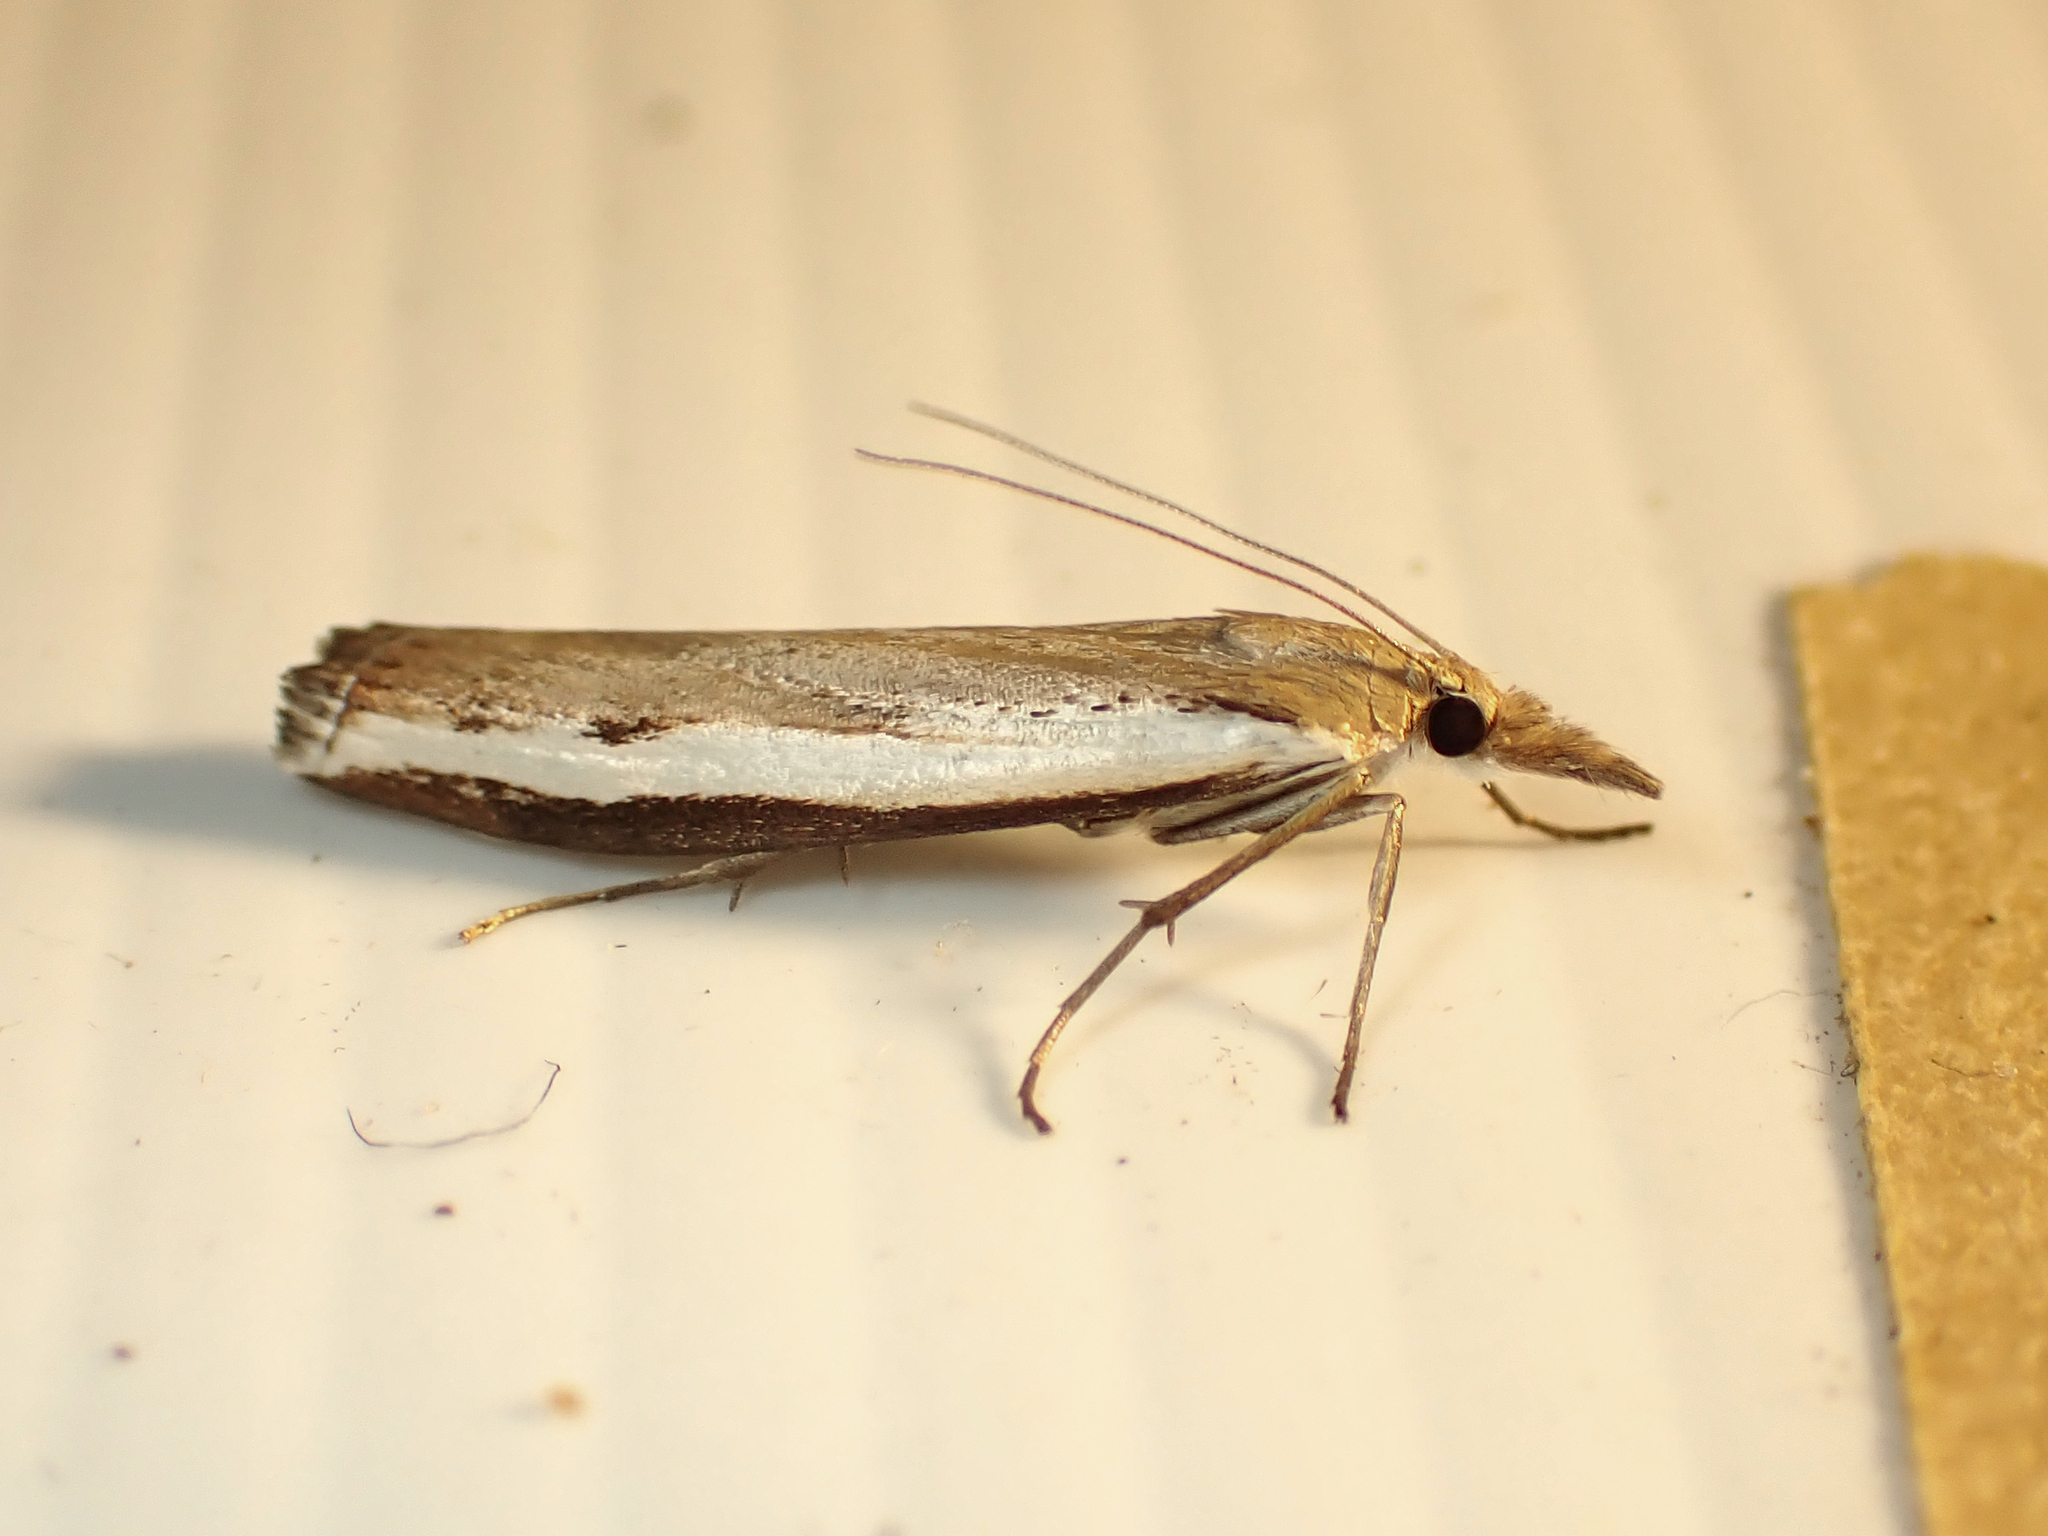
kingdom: Animalia
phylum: Arthropoda
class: Insecta
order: Lepidoptera
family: Crambidae
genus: Orocrambus
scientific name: Orocrambus flexuosellus
